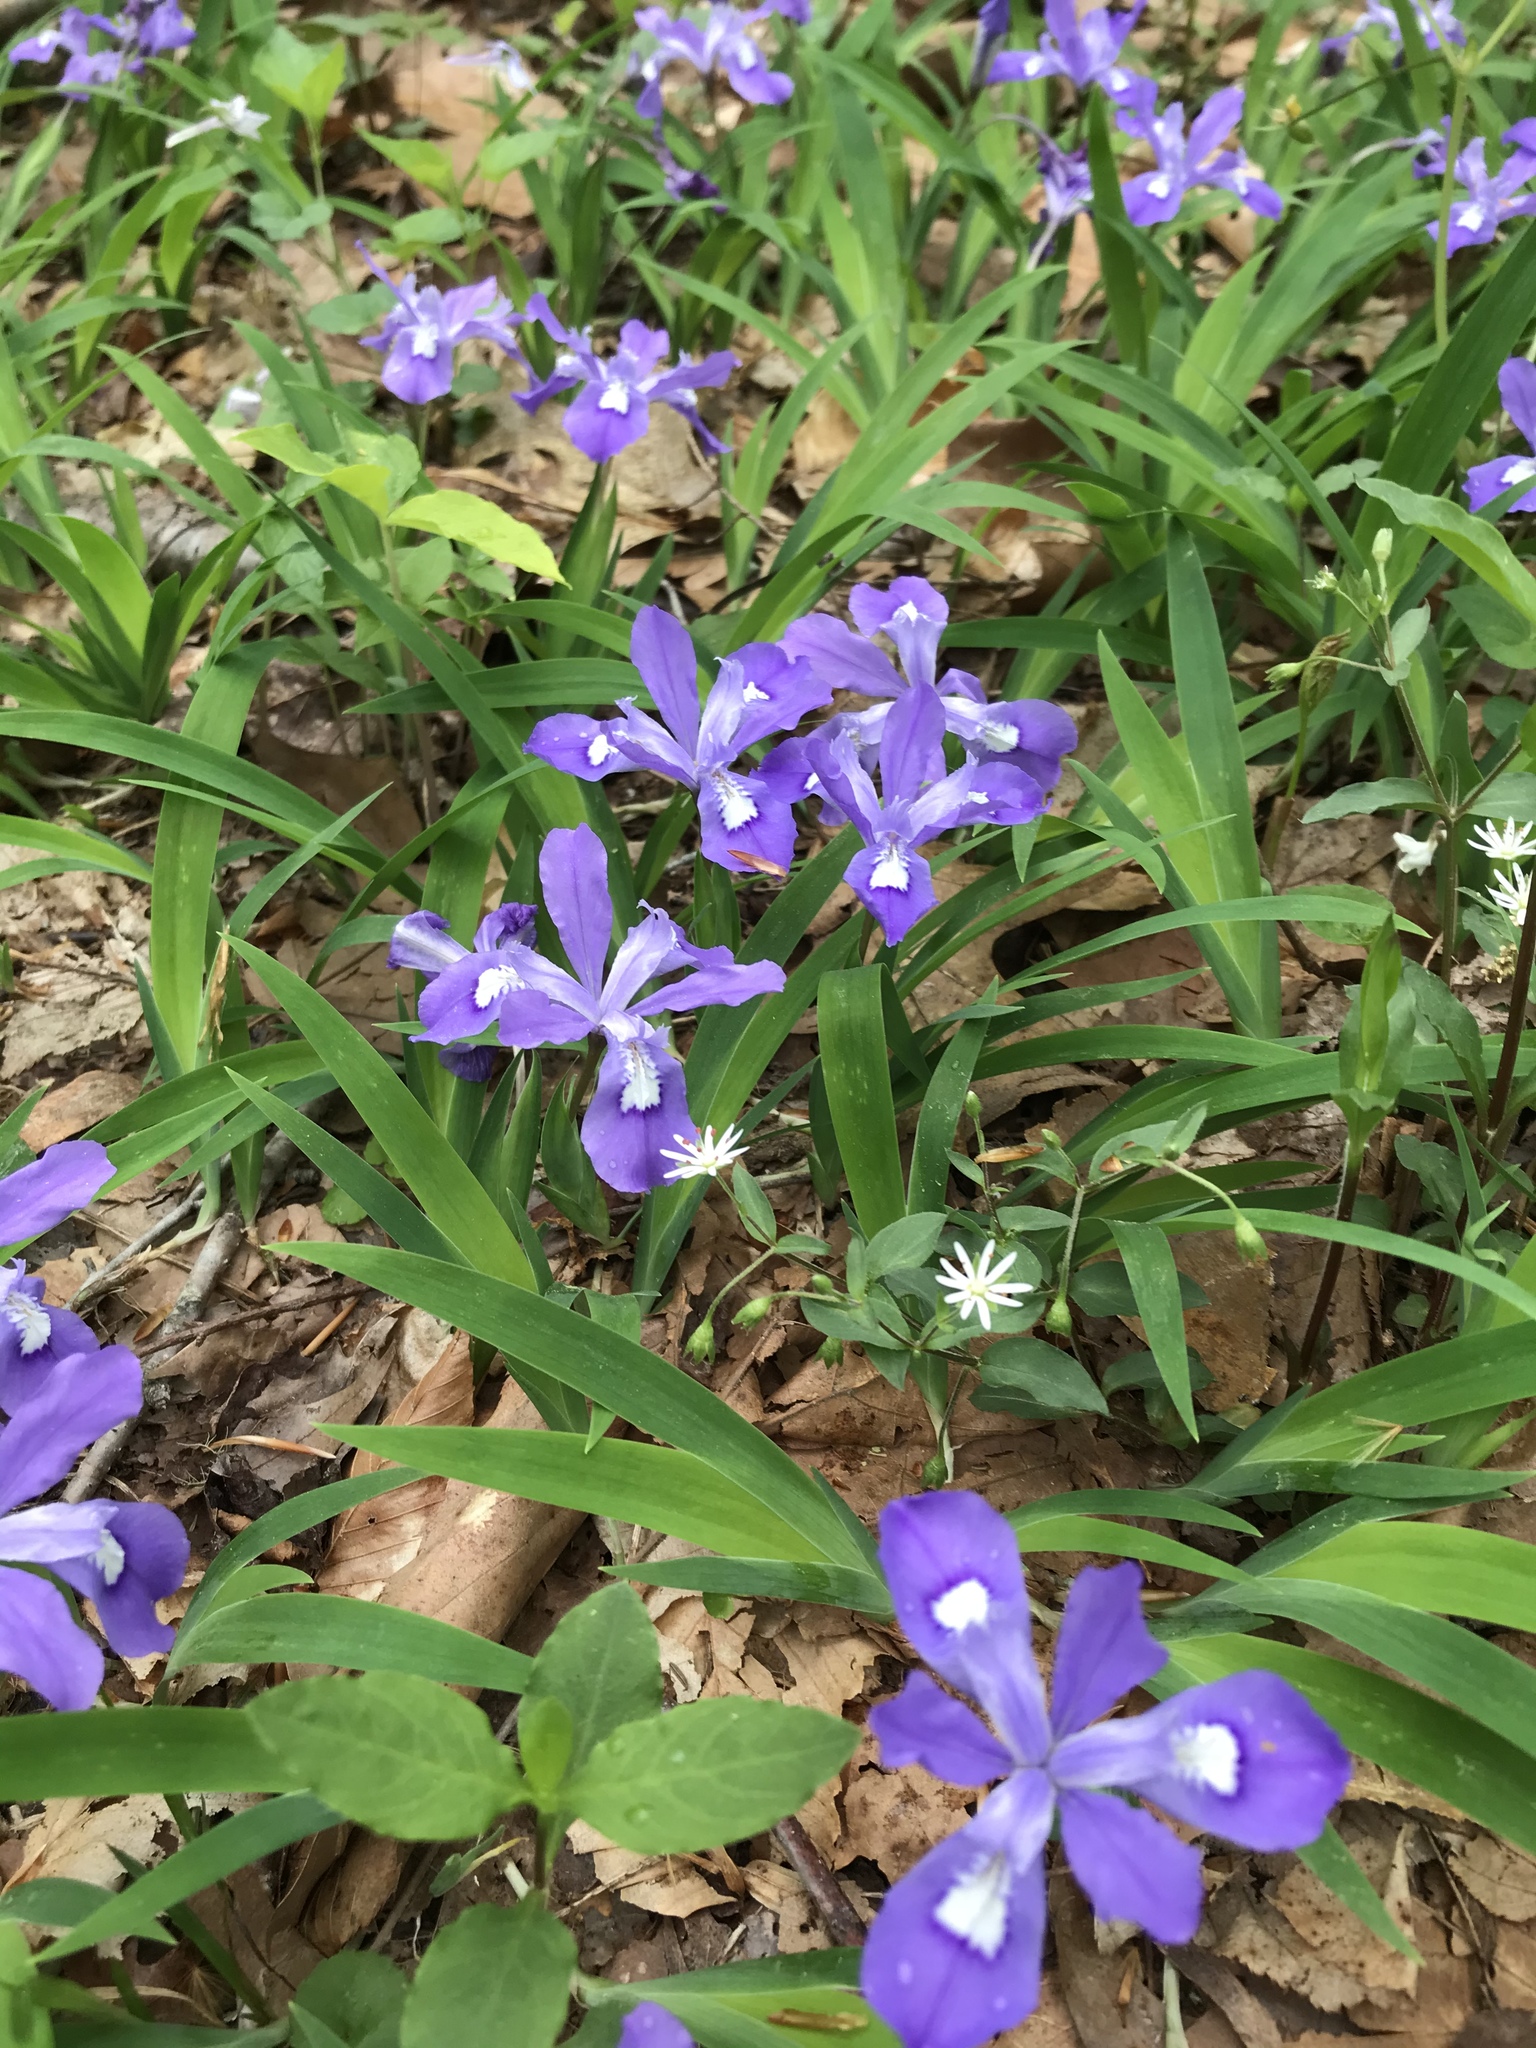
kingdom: Plantae
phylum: Tracheophyta
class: Liliopsida
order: Asparagales
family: Iridaceae
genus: Iris
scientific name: Iris cristata
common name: Crested iris
